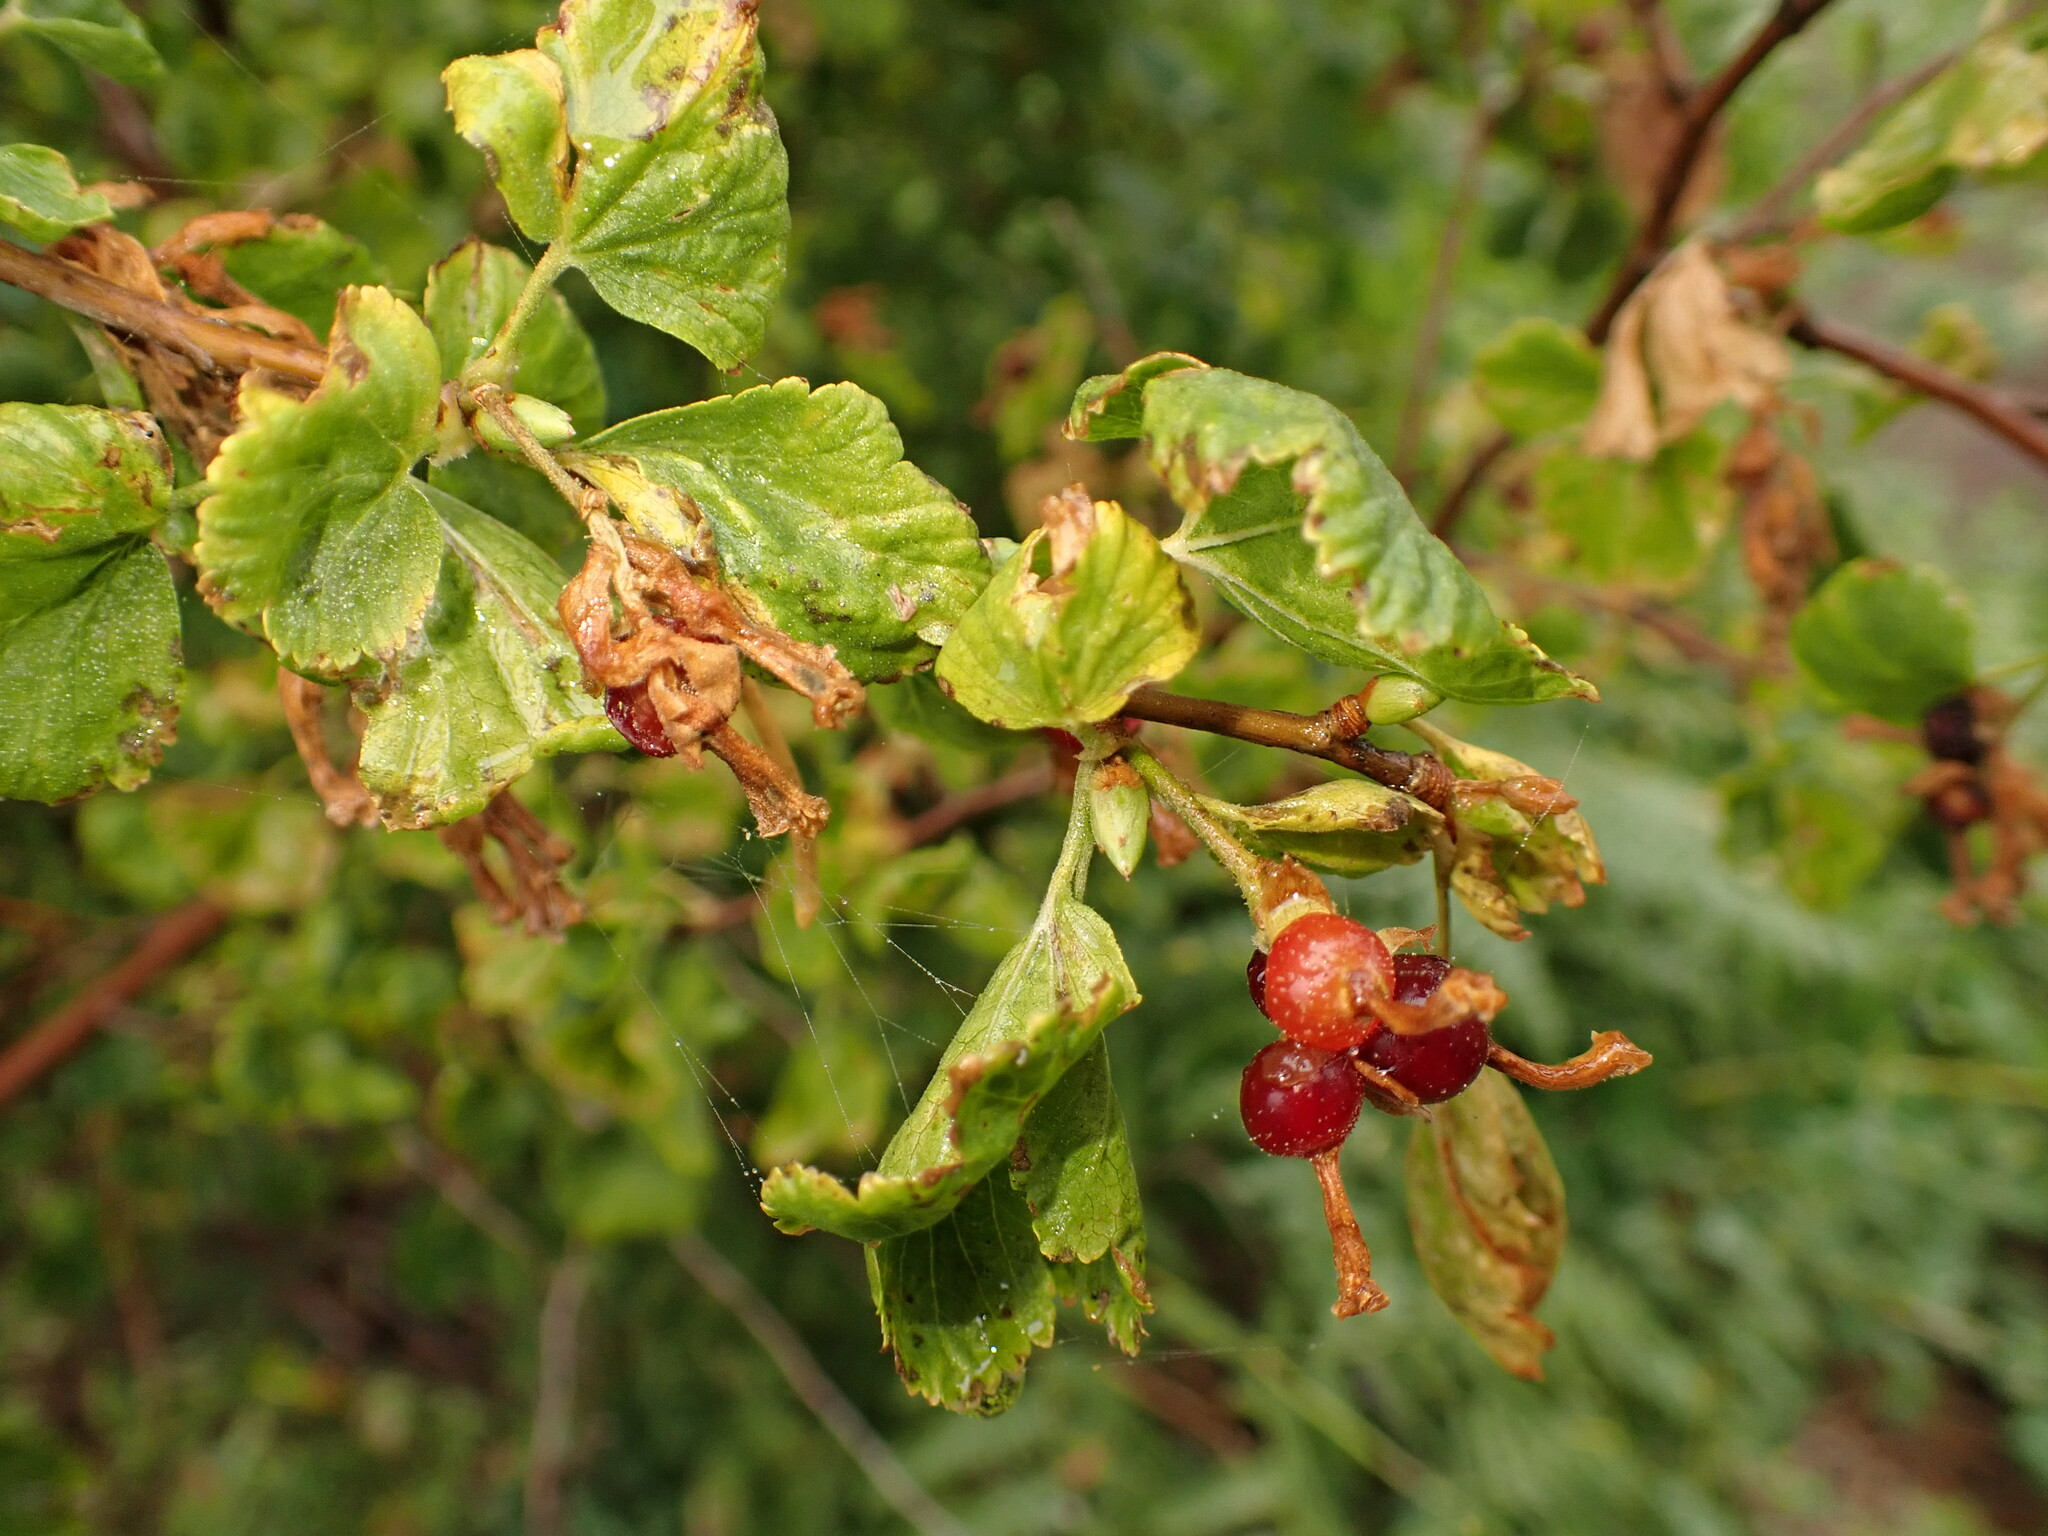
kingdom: Plantae
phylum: Tracheophyta
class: Magnoliopsida
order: Saxifragales
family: Grossulariaceae
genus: Ribes
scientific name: Ribes cereum
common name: Wax currant
